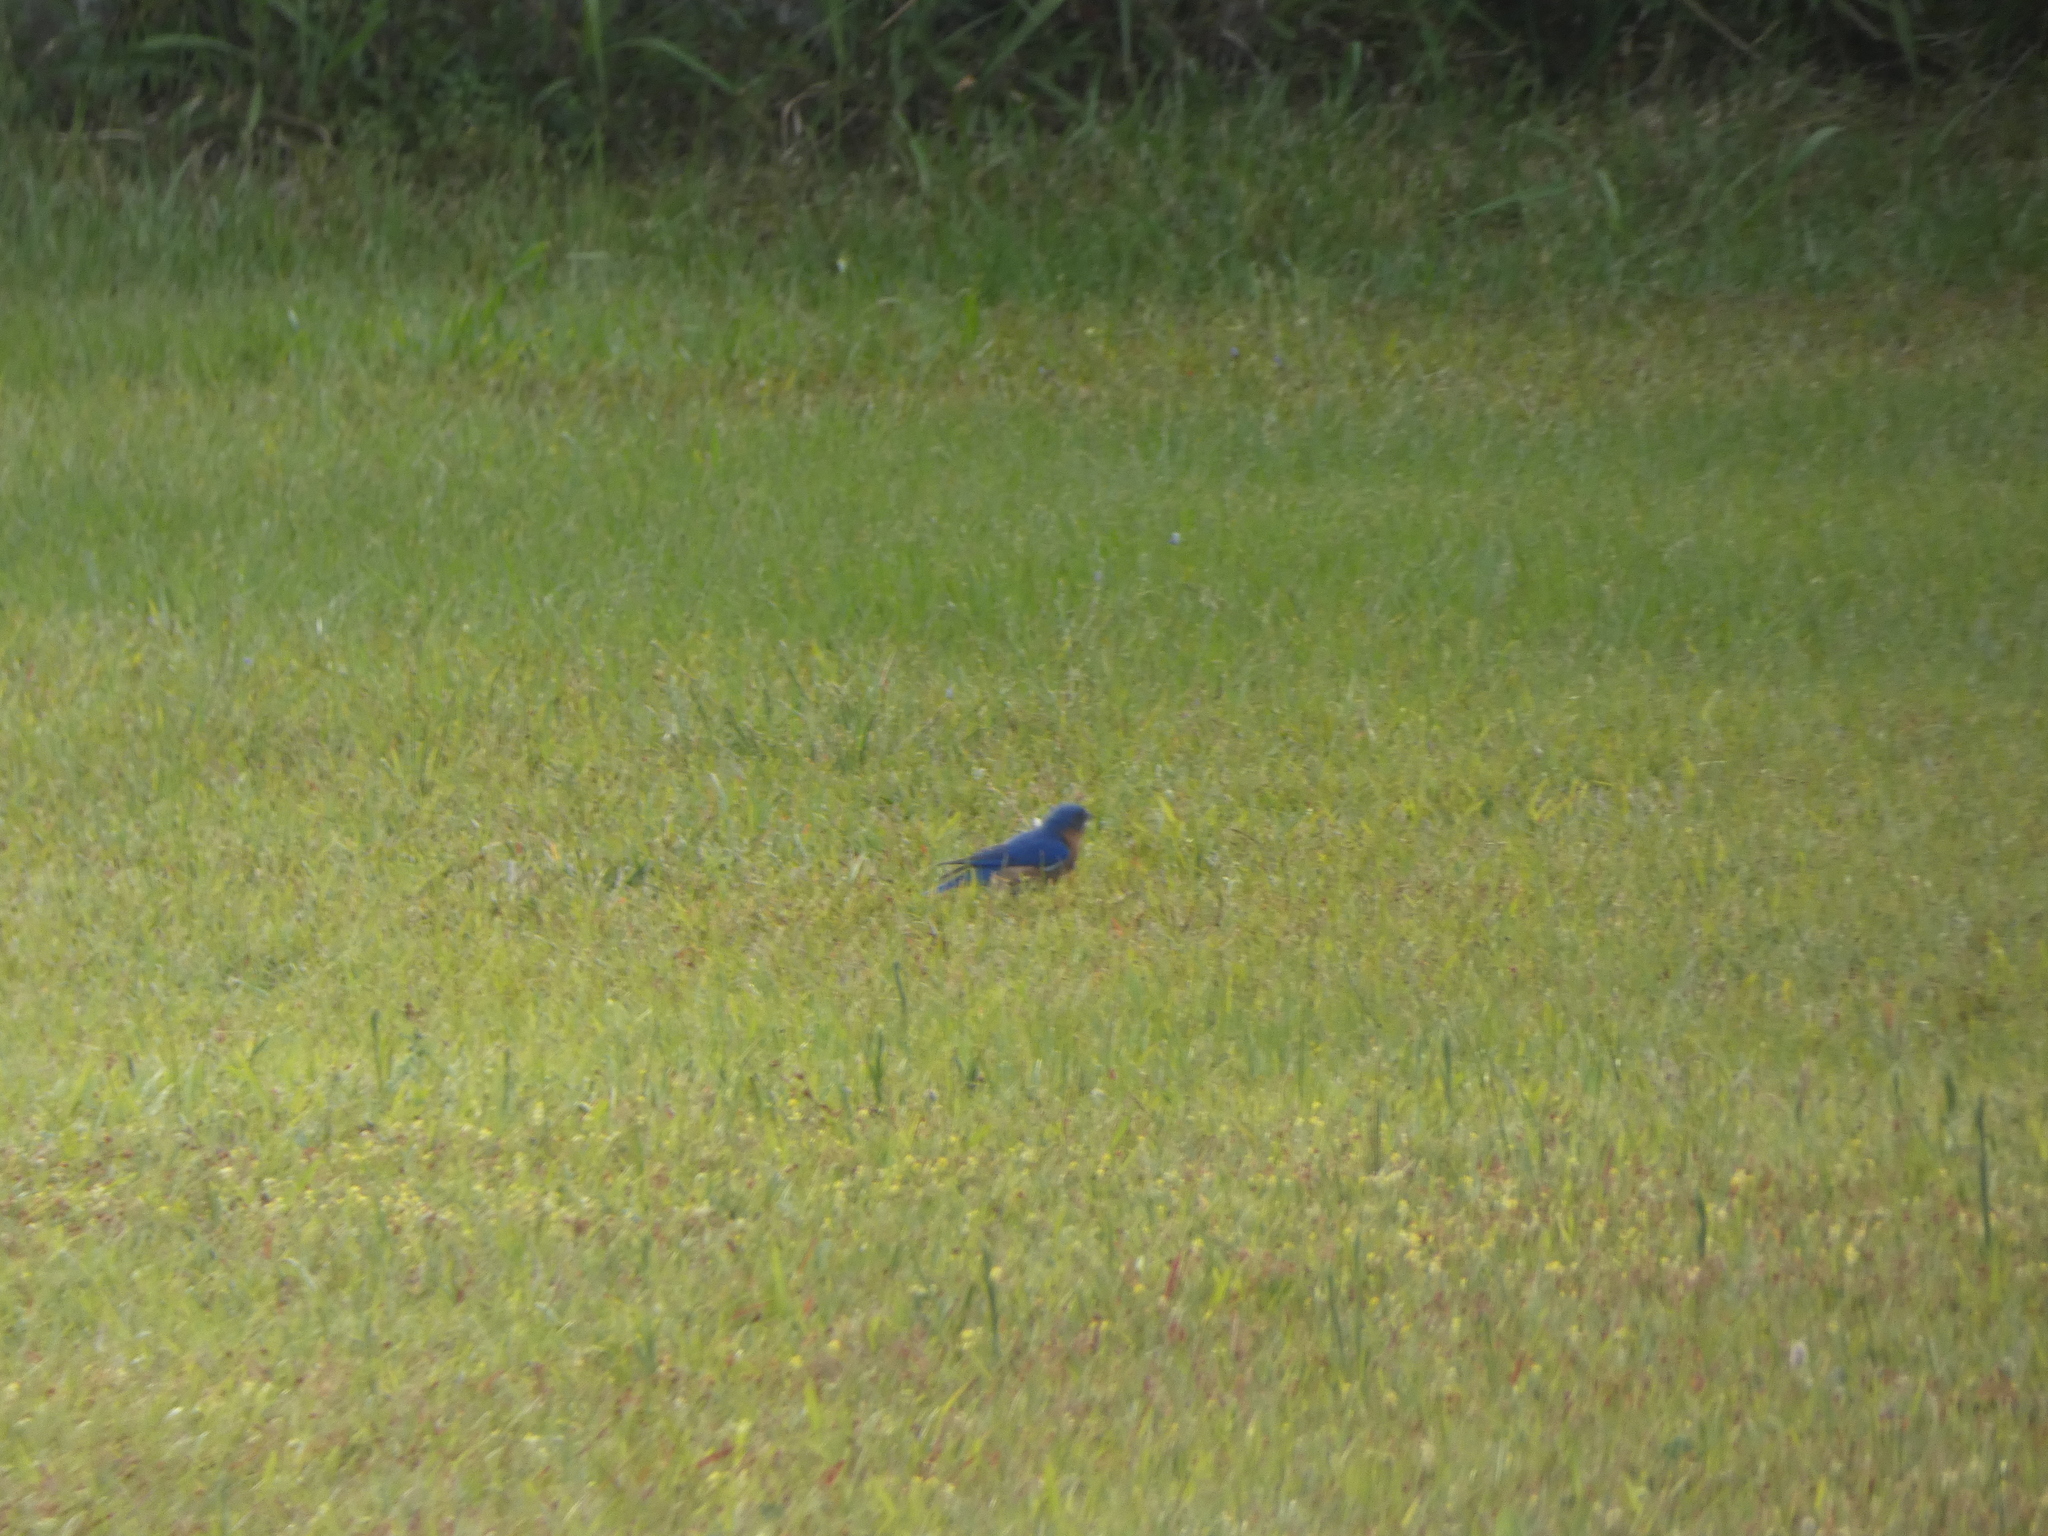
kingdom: Animalia
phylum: Chordata
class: Aves
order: Passeriformes
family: Turdidae
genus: Sialia
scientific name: Sialia sialis
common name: Eastern bluebird
